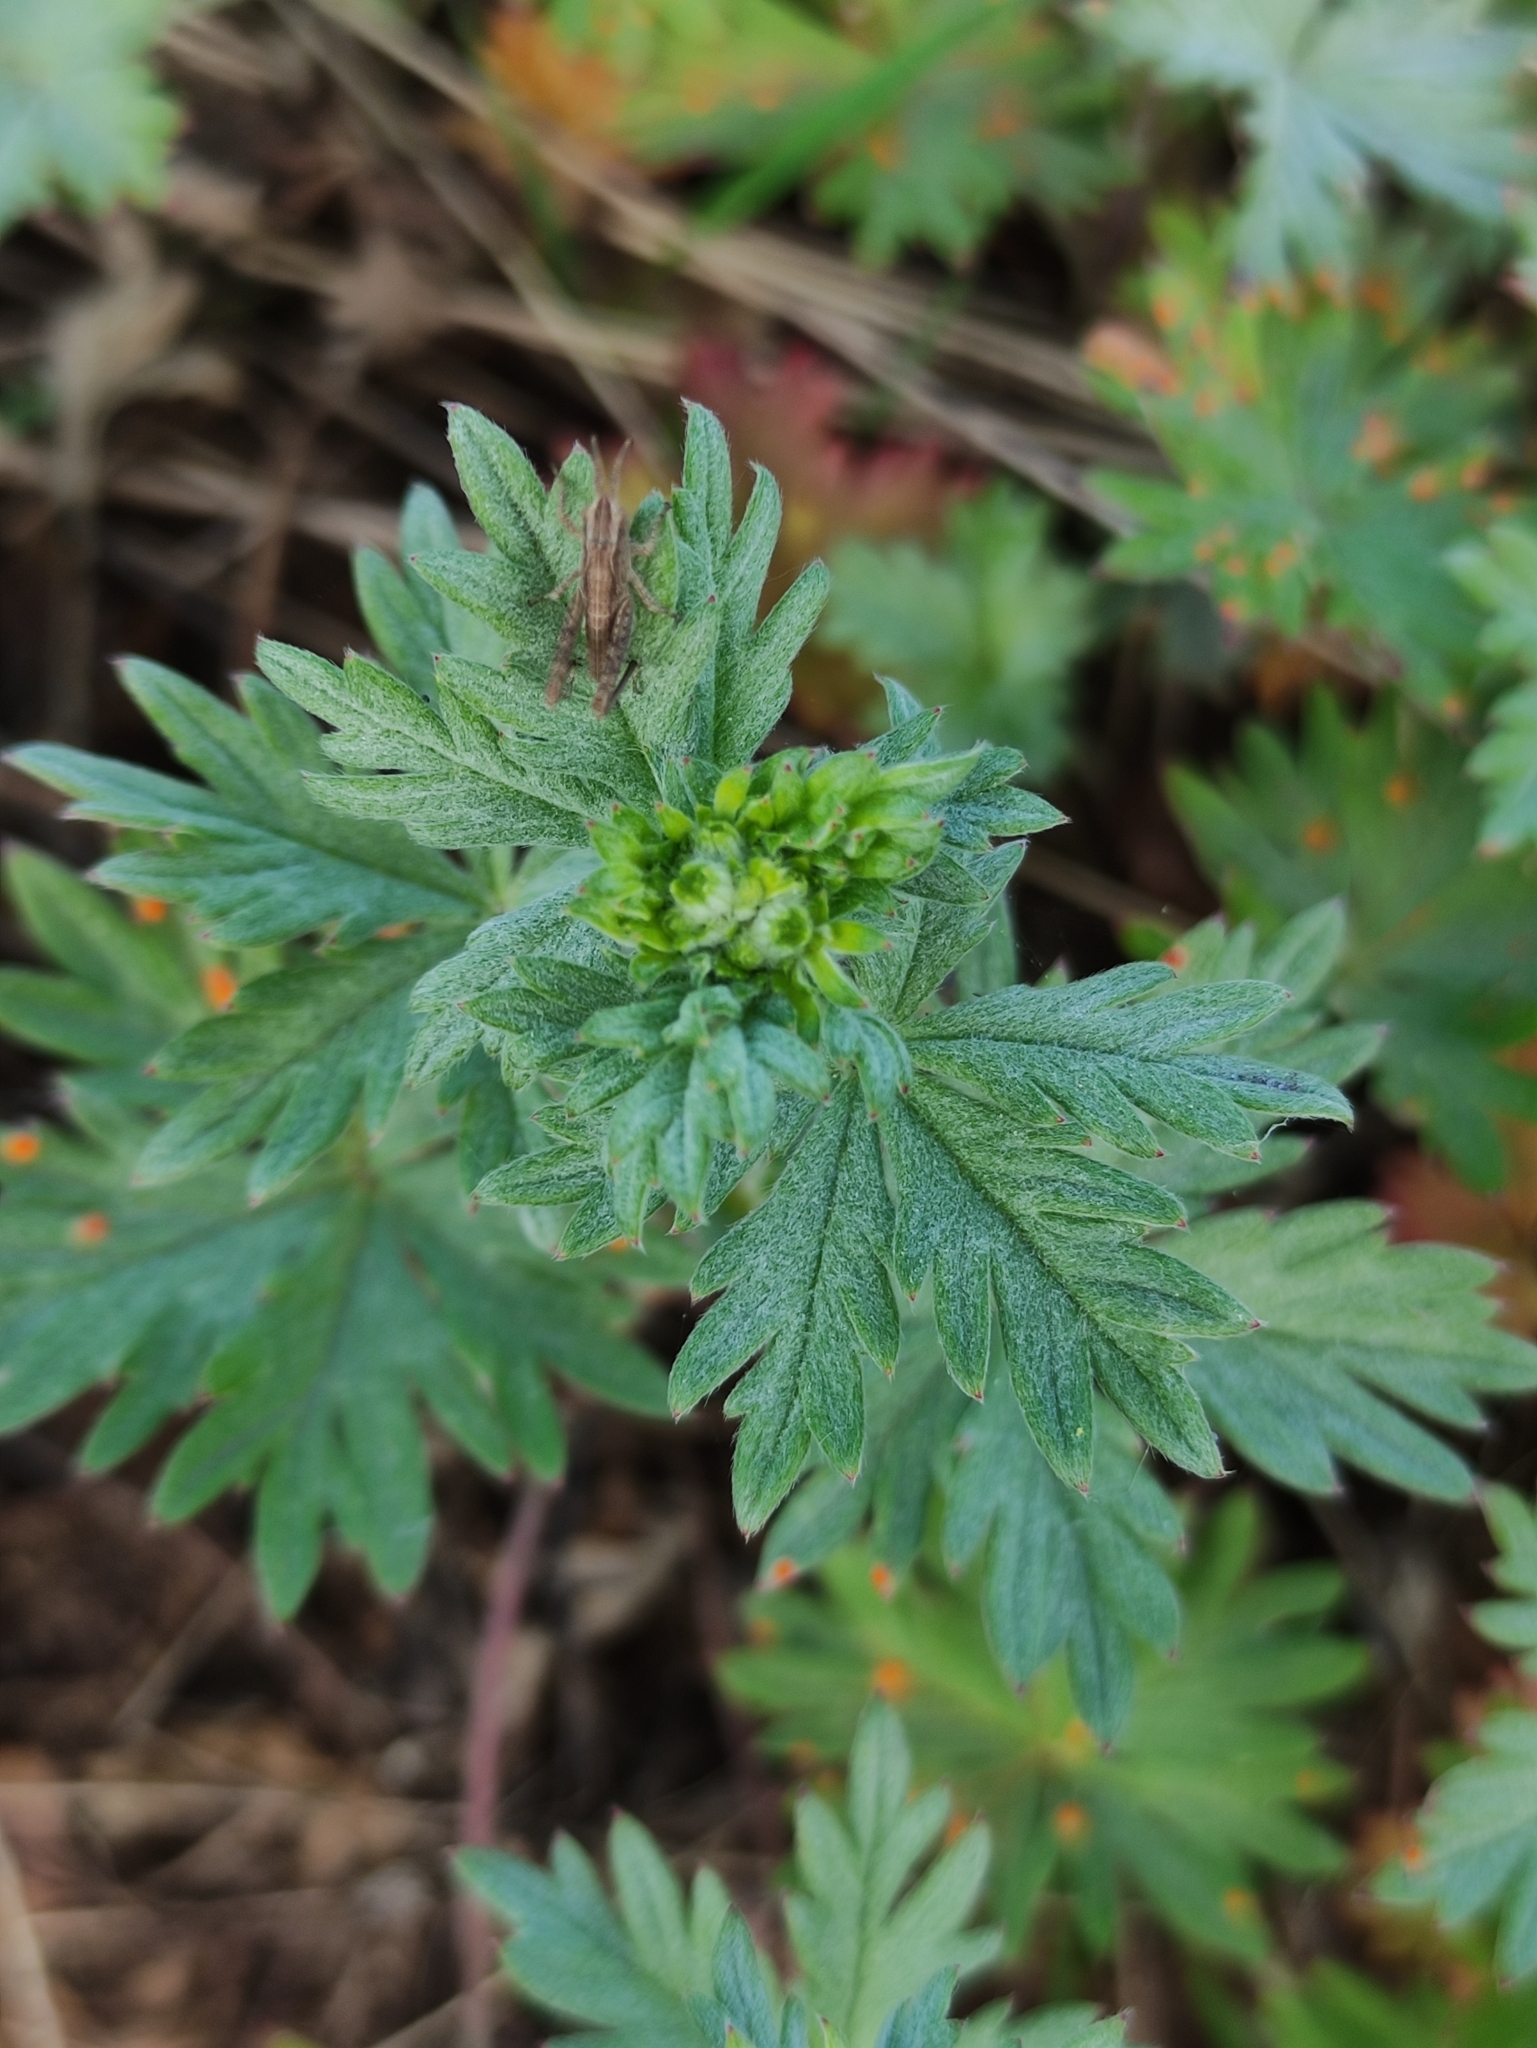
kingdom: Plantae
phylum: Tracheophyta
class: Magnoliopsida
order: Rosales
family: Rosaceae
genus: Potentilla
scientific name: Potentilla argentea
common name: Hoary cinquefoil
